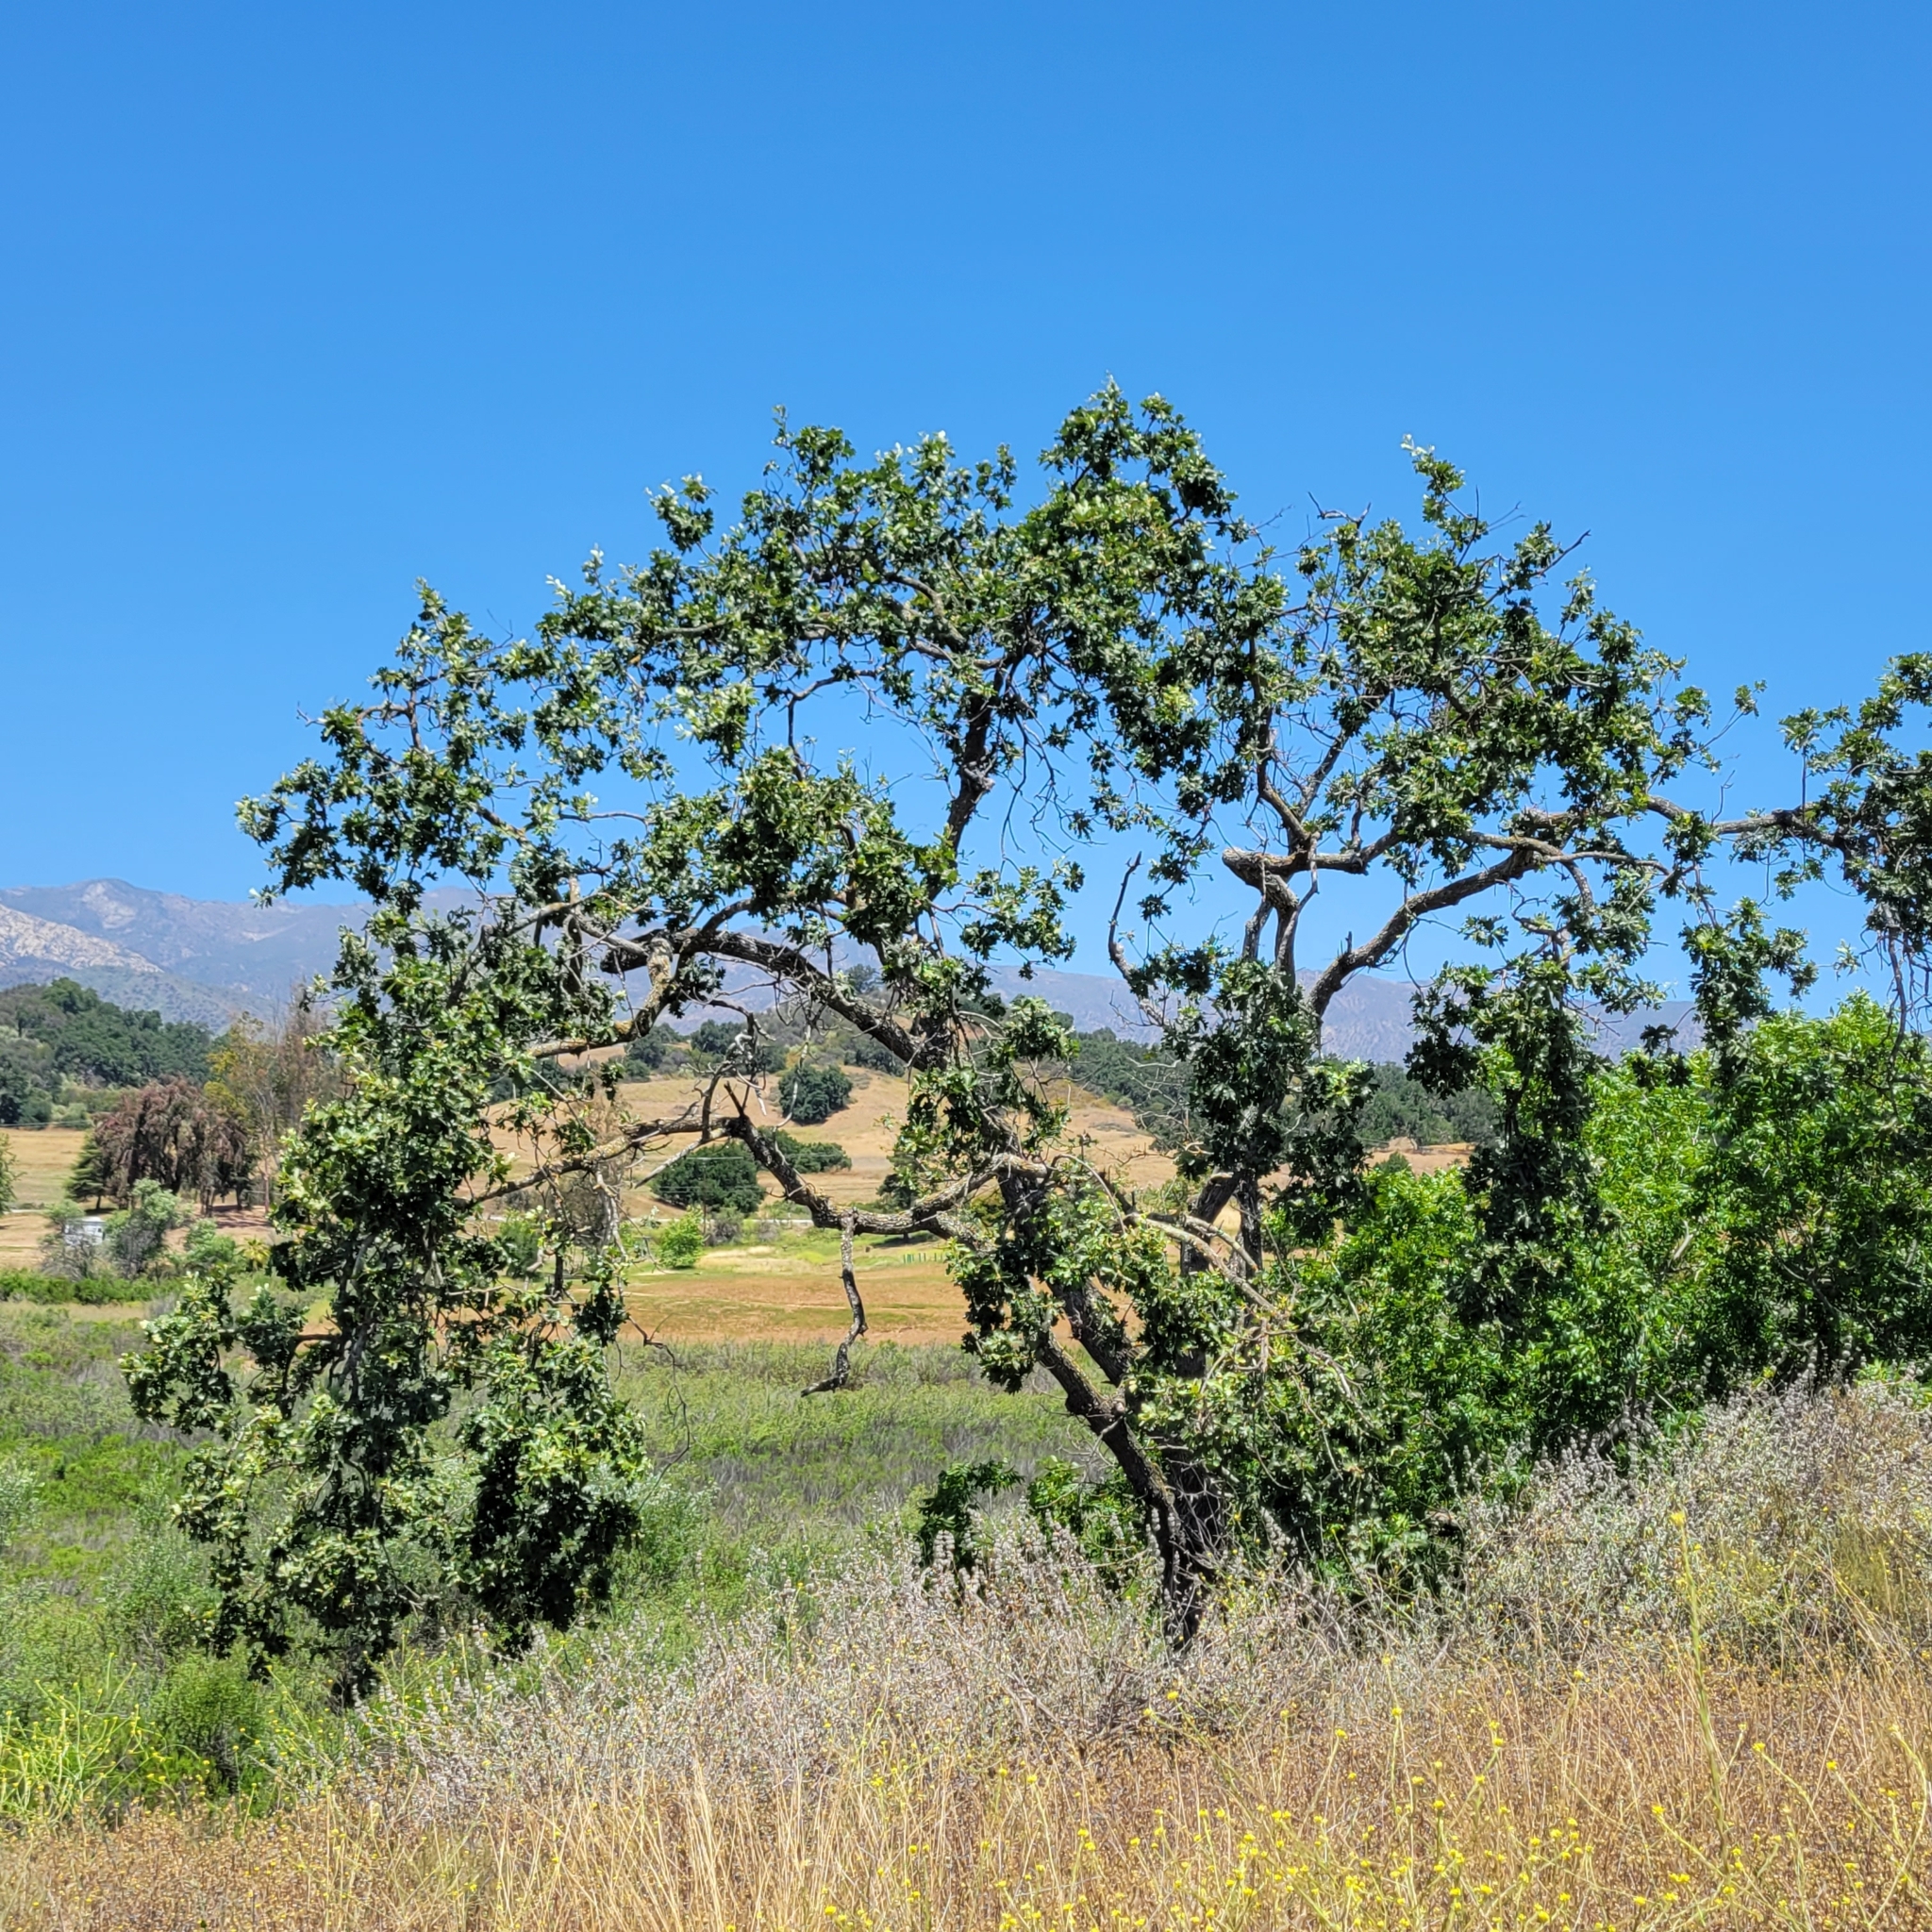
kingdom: Plantae
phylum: Tracheophyta
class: Magnoliopsida
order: Fagales
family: Fagaceae
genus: Quercus
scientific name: Quercus lobata
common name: Valley oak
